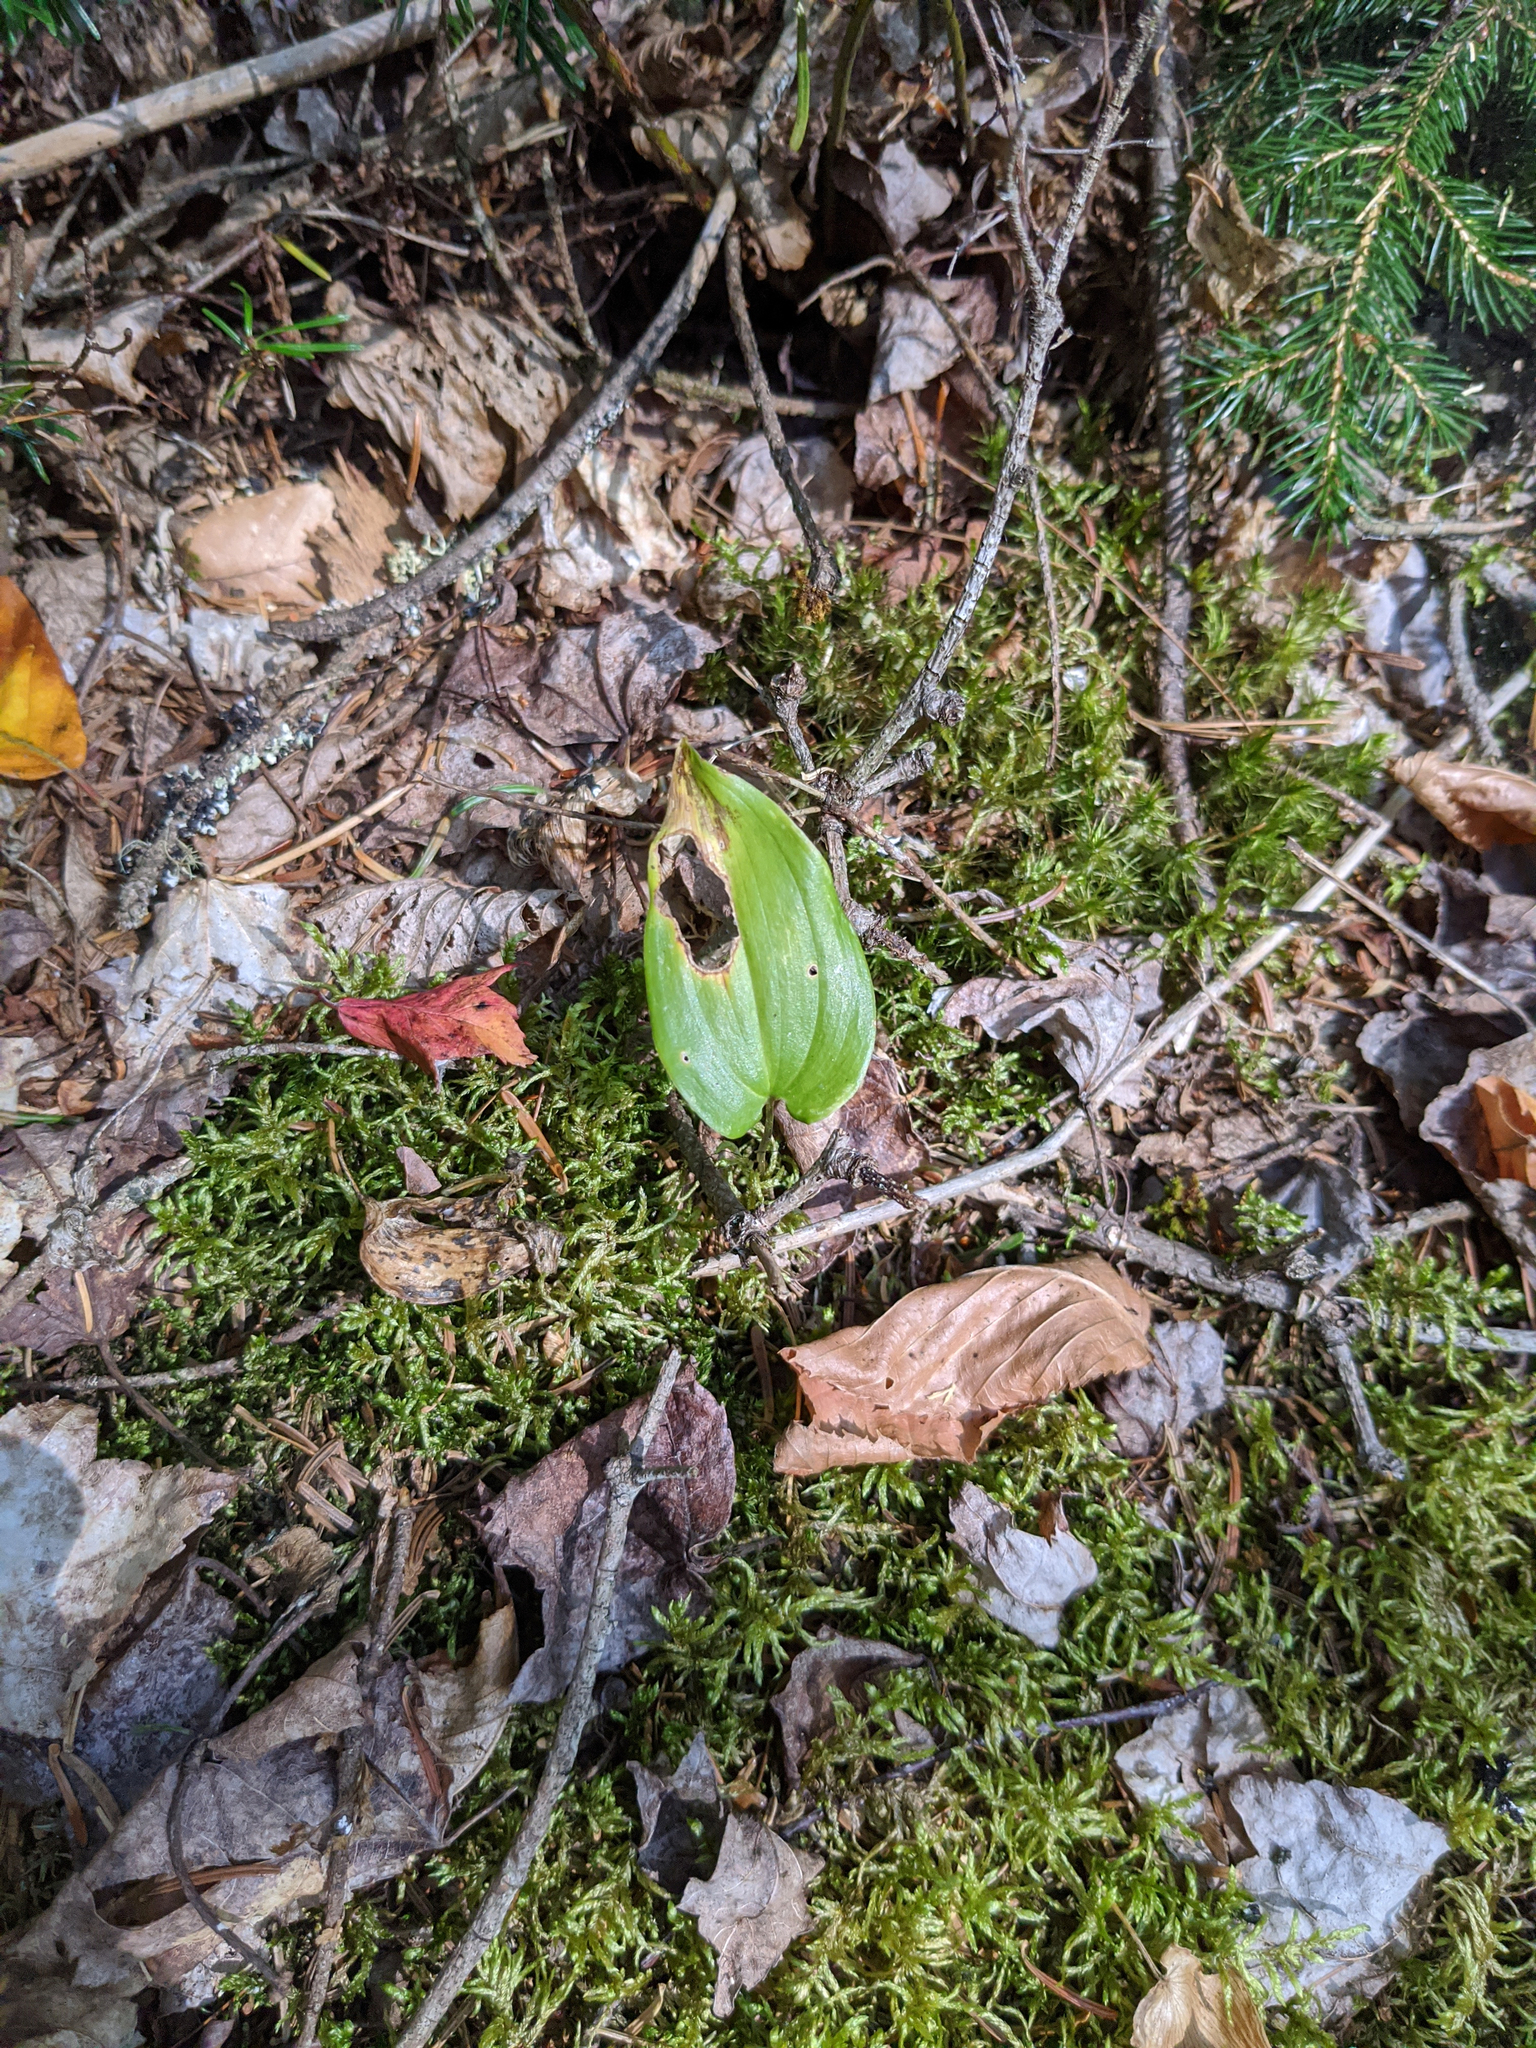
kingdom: Plantae
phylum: Tracheophyta
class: Liliopsida
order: Asparagales
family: Asparagaceae
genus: Maianthemum
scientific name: Maianthemum canadense
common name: False lily-of-the-valley
